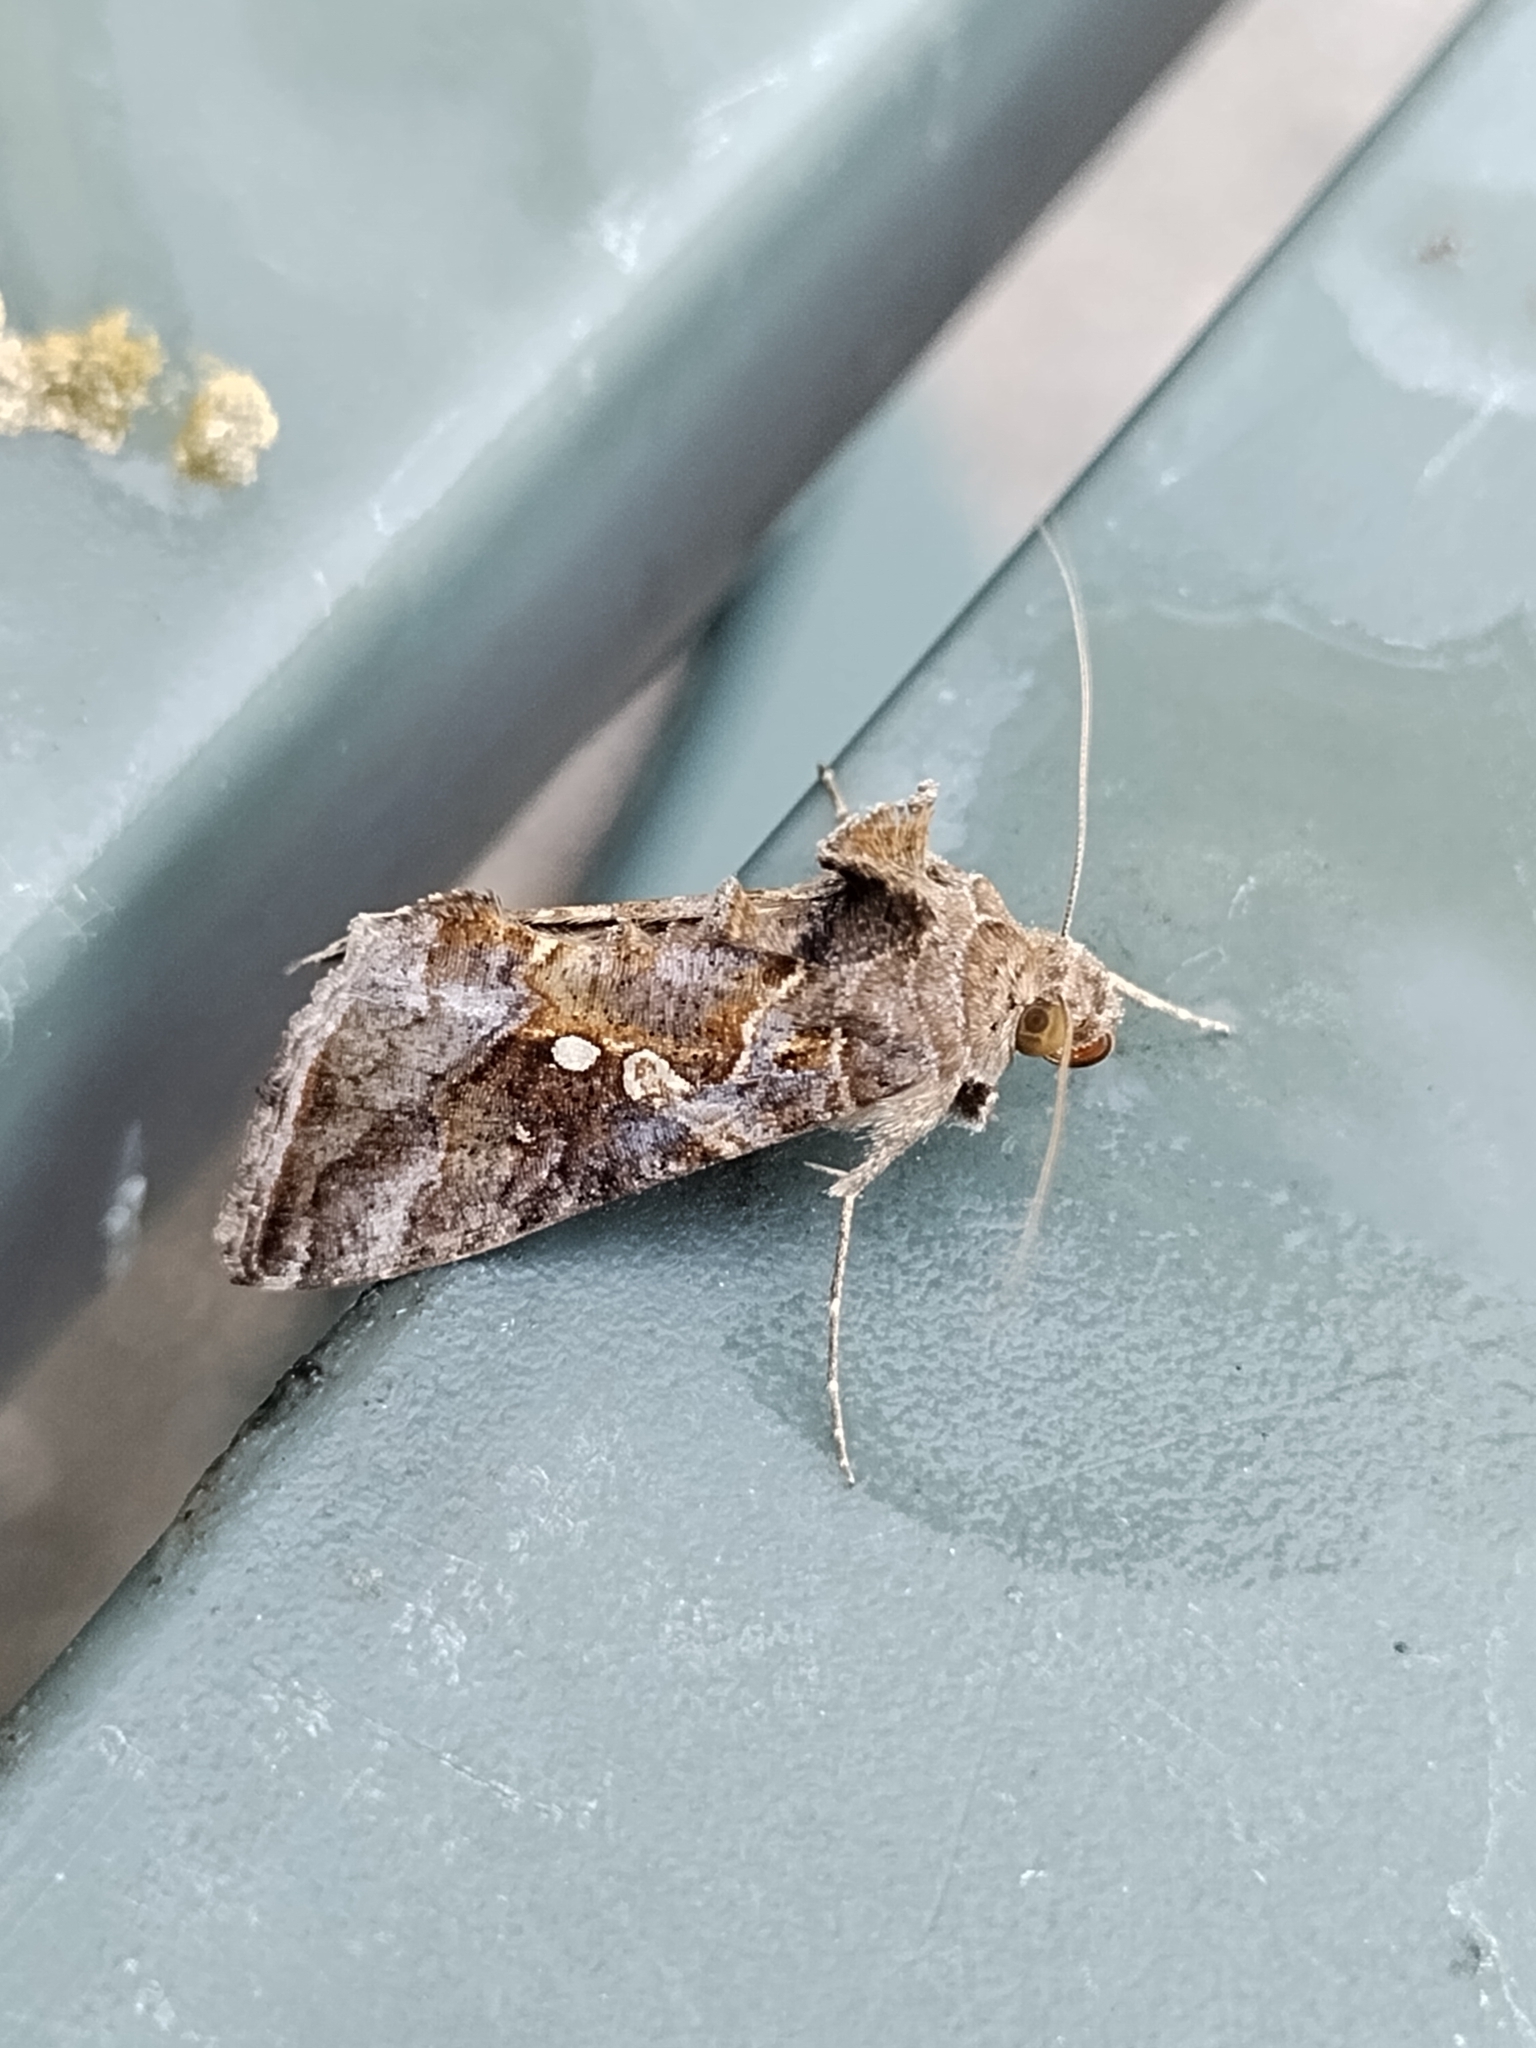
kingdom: Animalia
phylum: Arthropoda
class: Insecta
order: Lepidoptera
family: Noctuidae
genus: Chrysodeixis
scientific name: Chrysodeixis includens
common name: Cutworm moth
